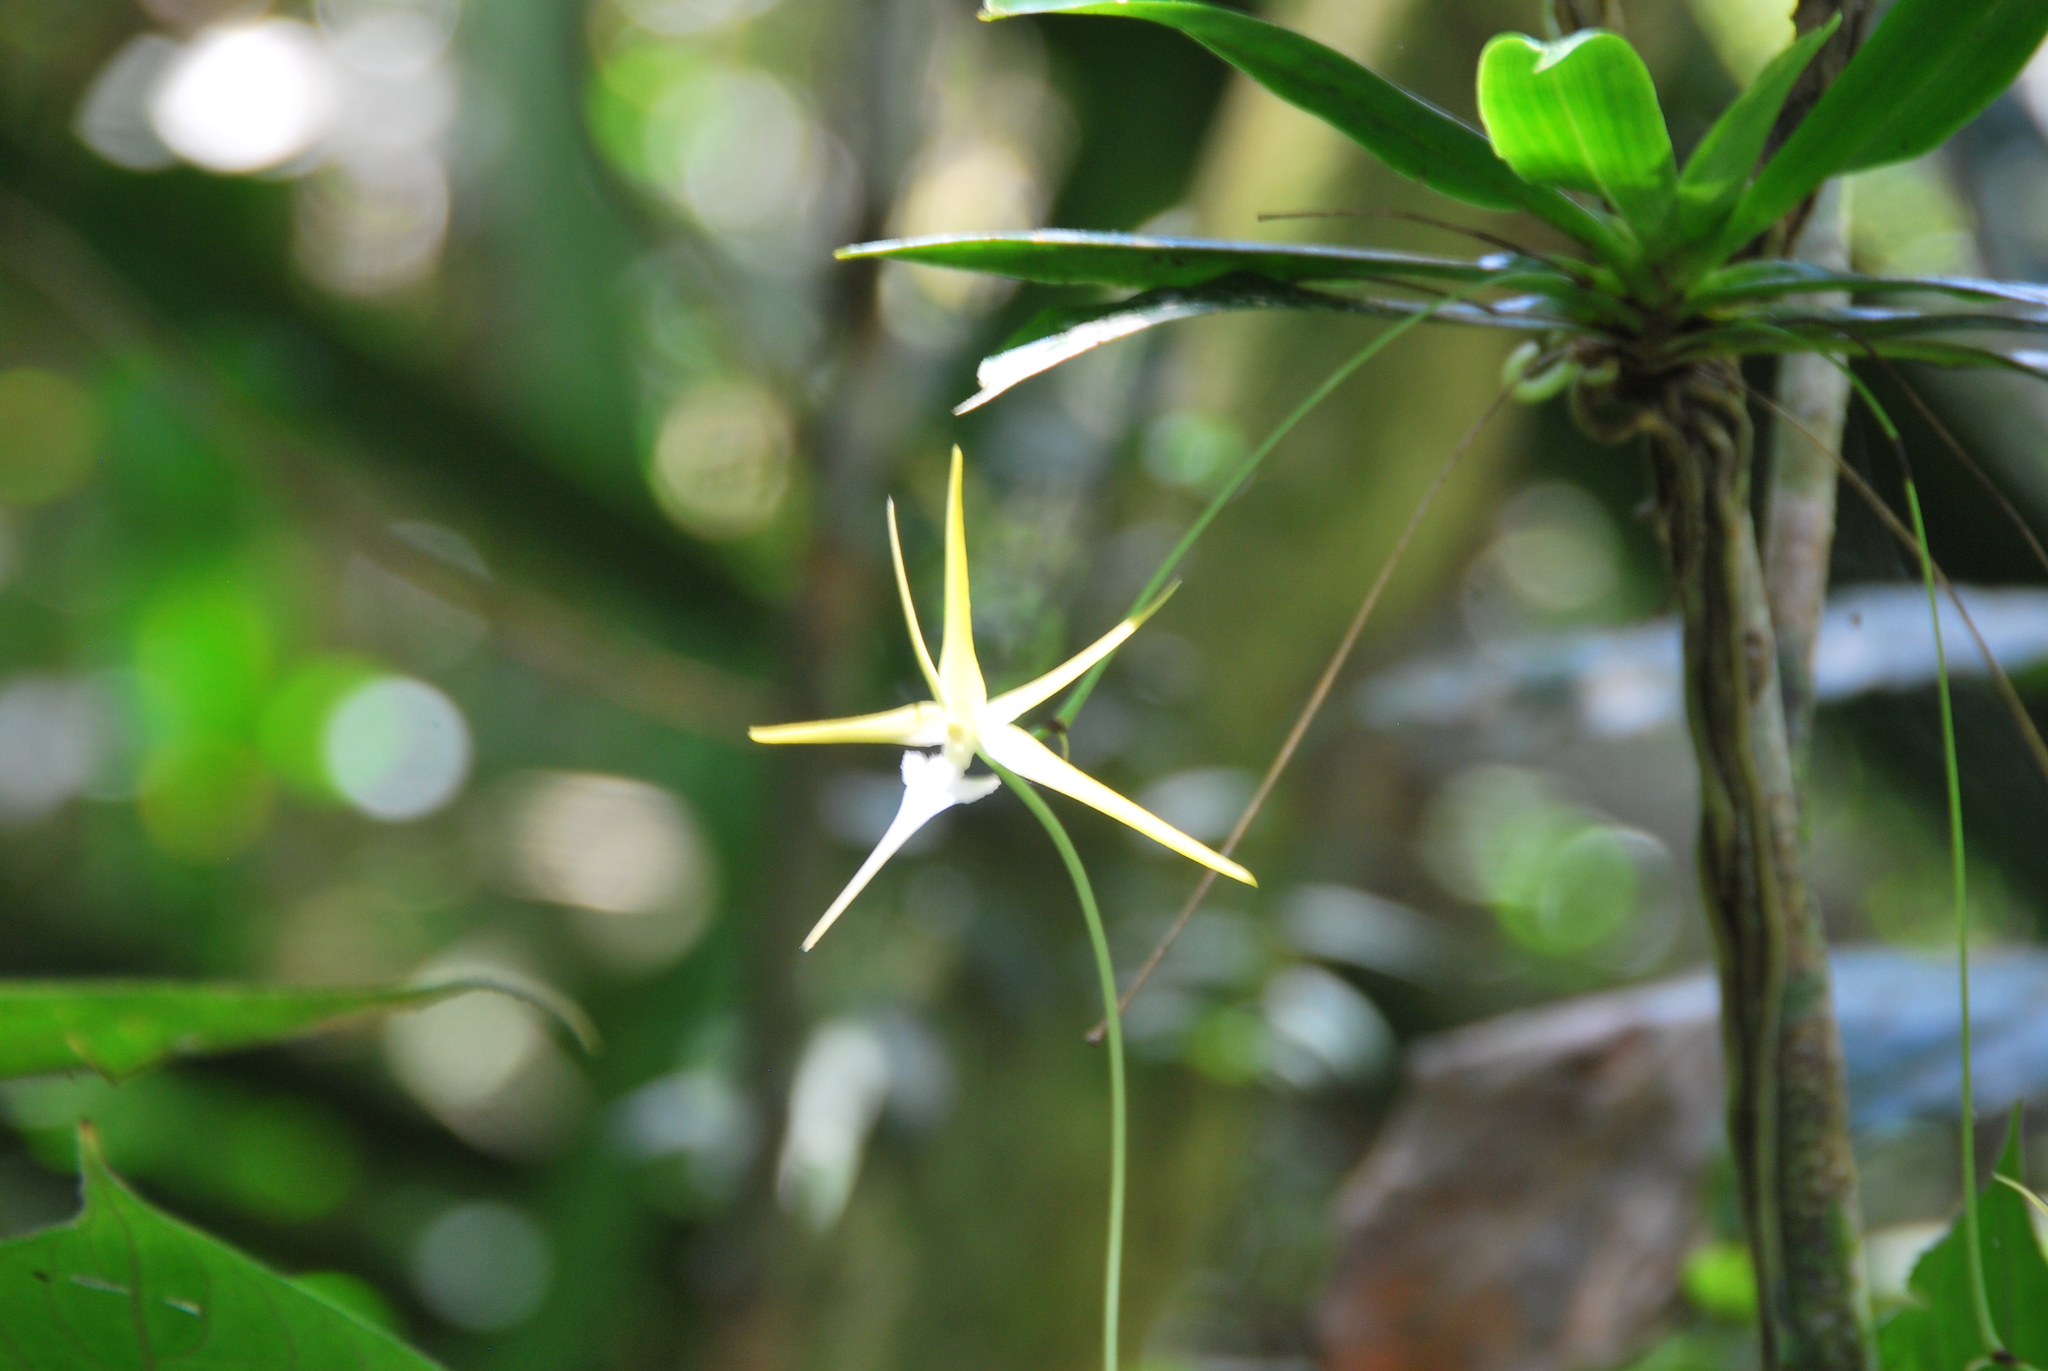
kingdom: Plantae
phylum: Tracheophyta
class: Liliopsida
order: Asparagales
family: Orchidaceae
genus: Aeranthes
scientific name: Aeranthes schlechteri
